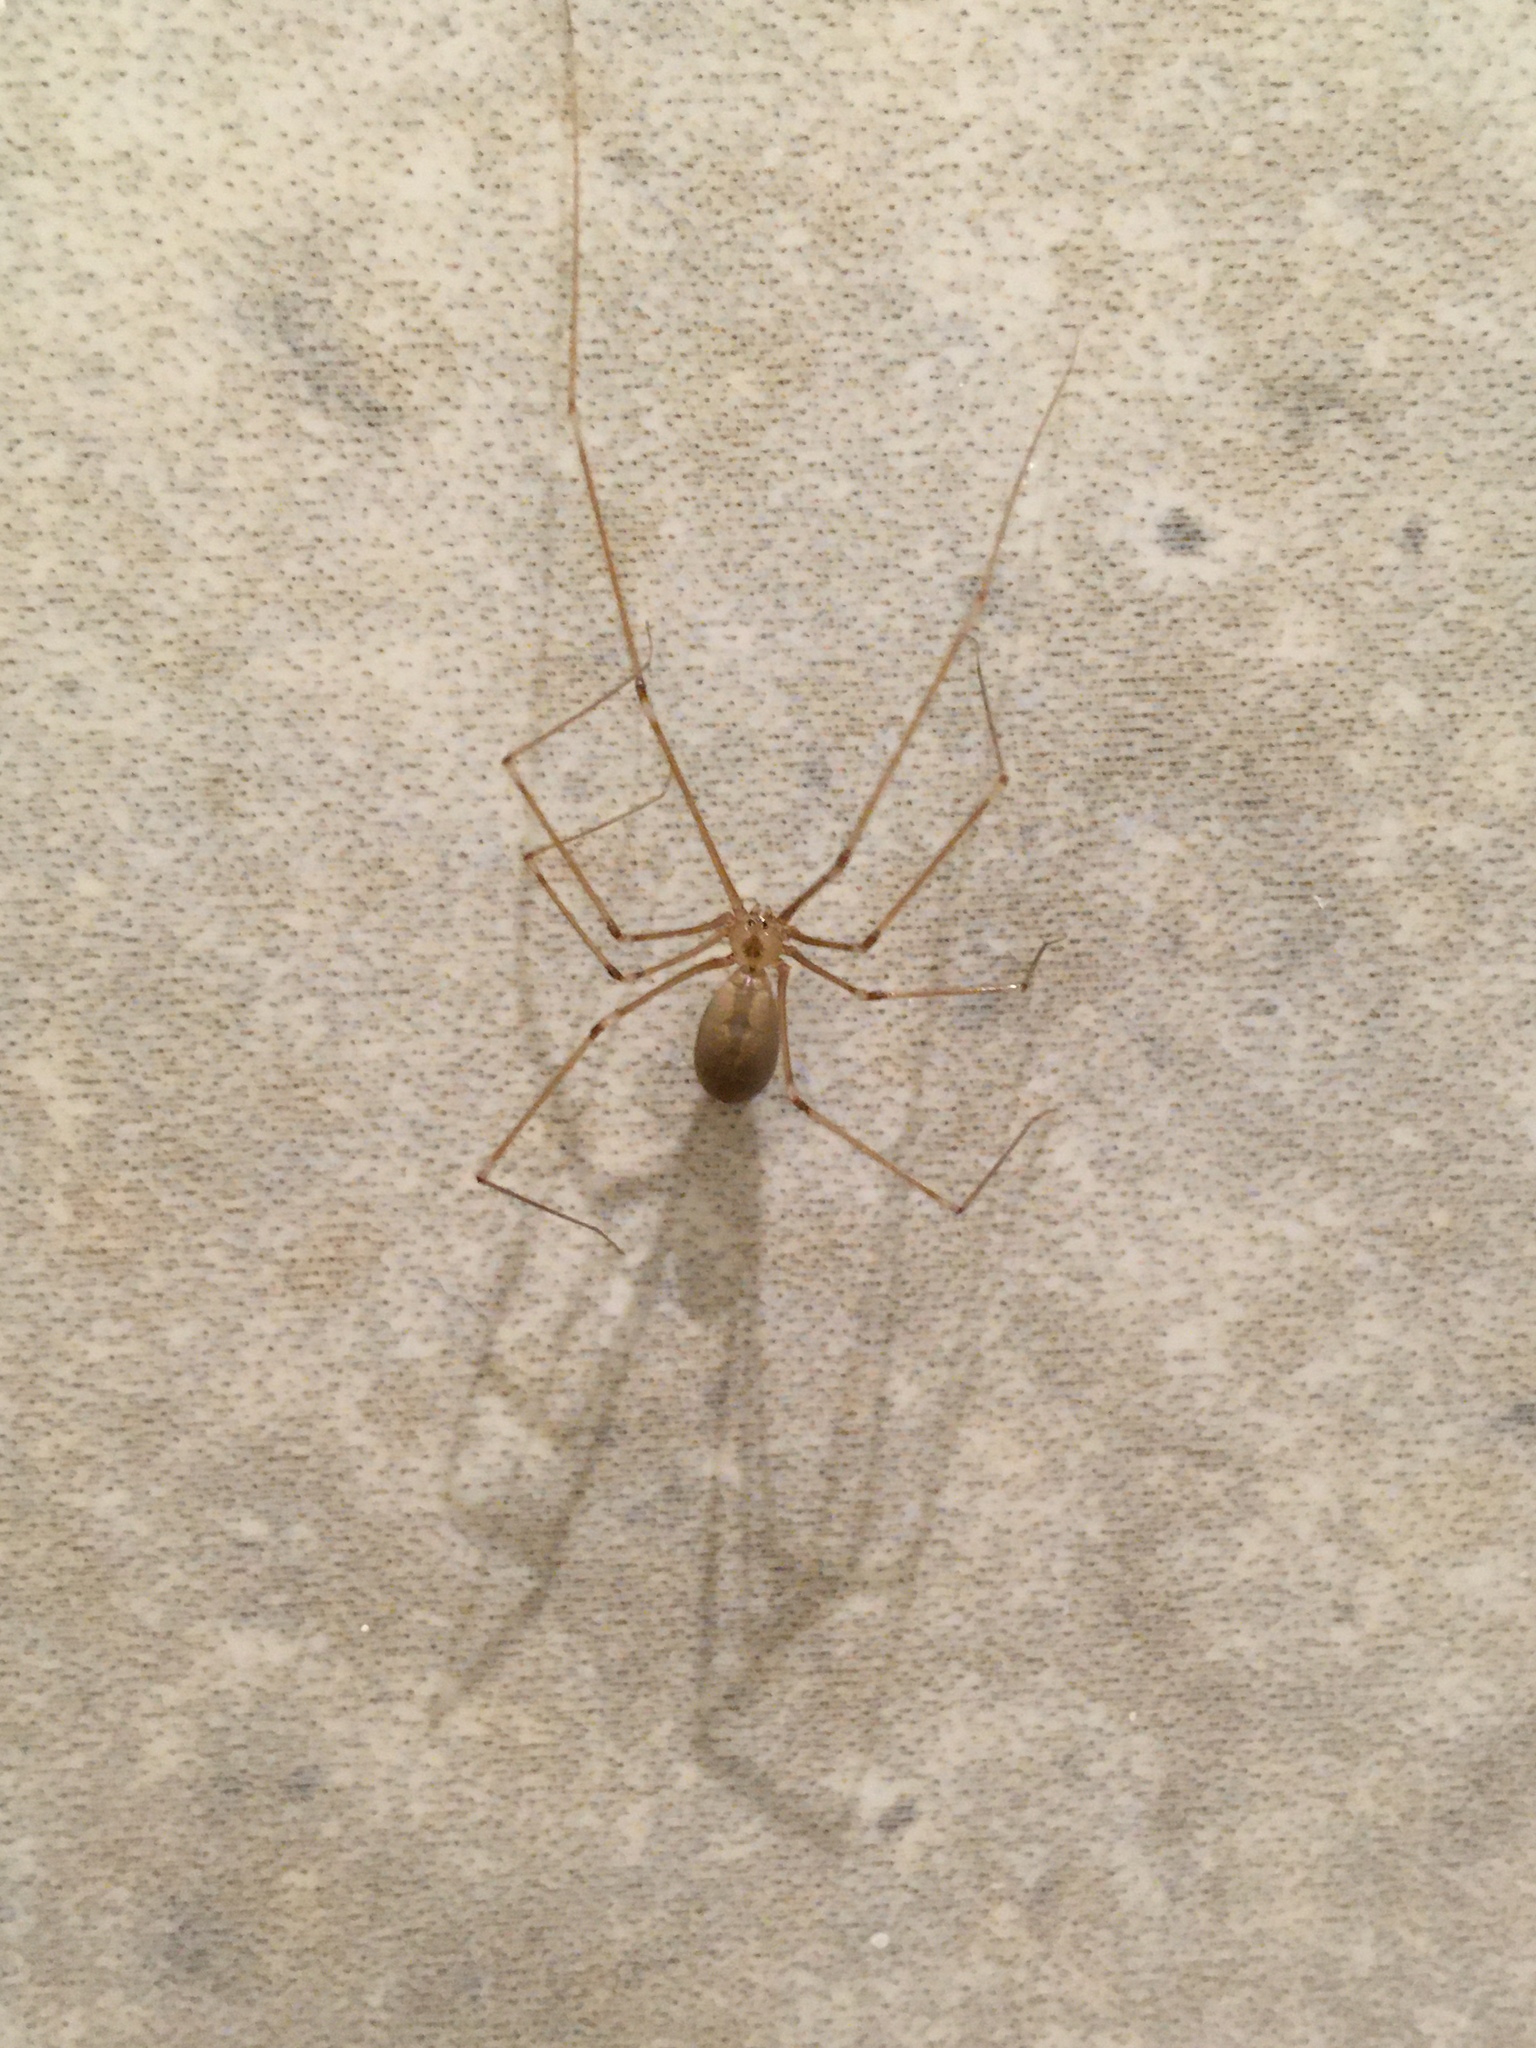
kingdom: Animalia
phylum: Arthropoda
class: Arachnida
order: Araneae
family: Pholcidae
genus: Pholcus
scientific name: Pholcus phalangioides
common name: Longbodied cellar spider
